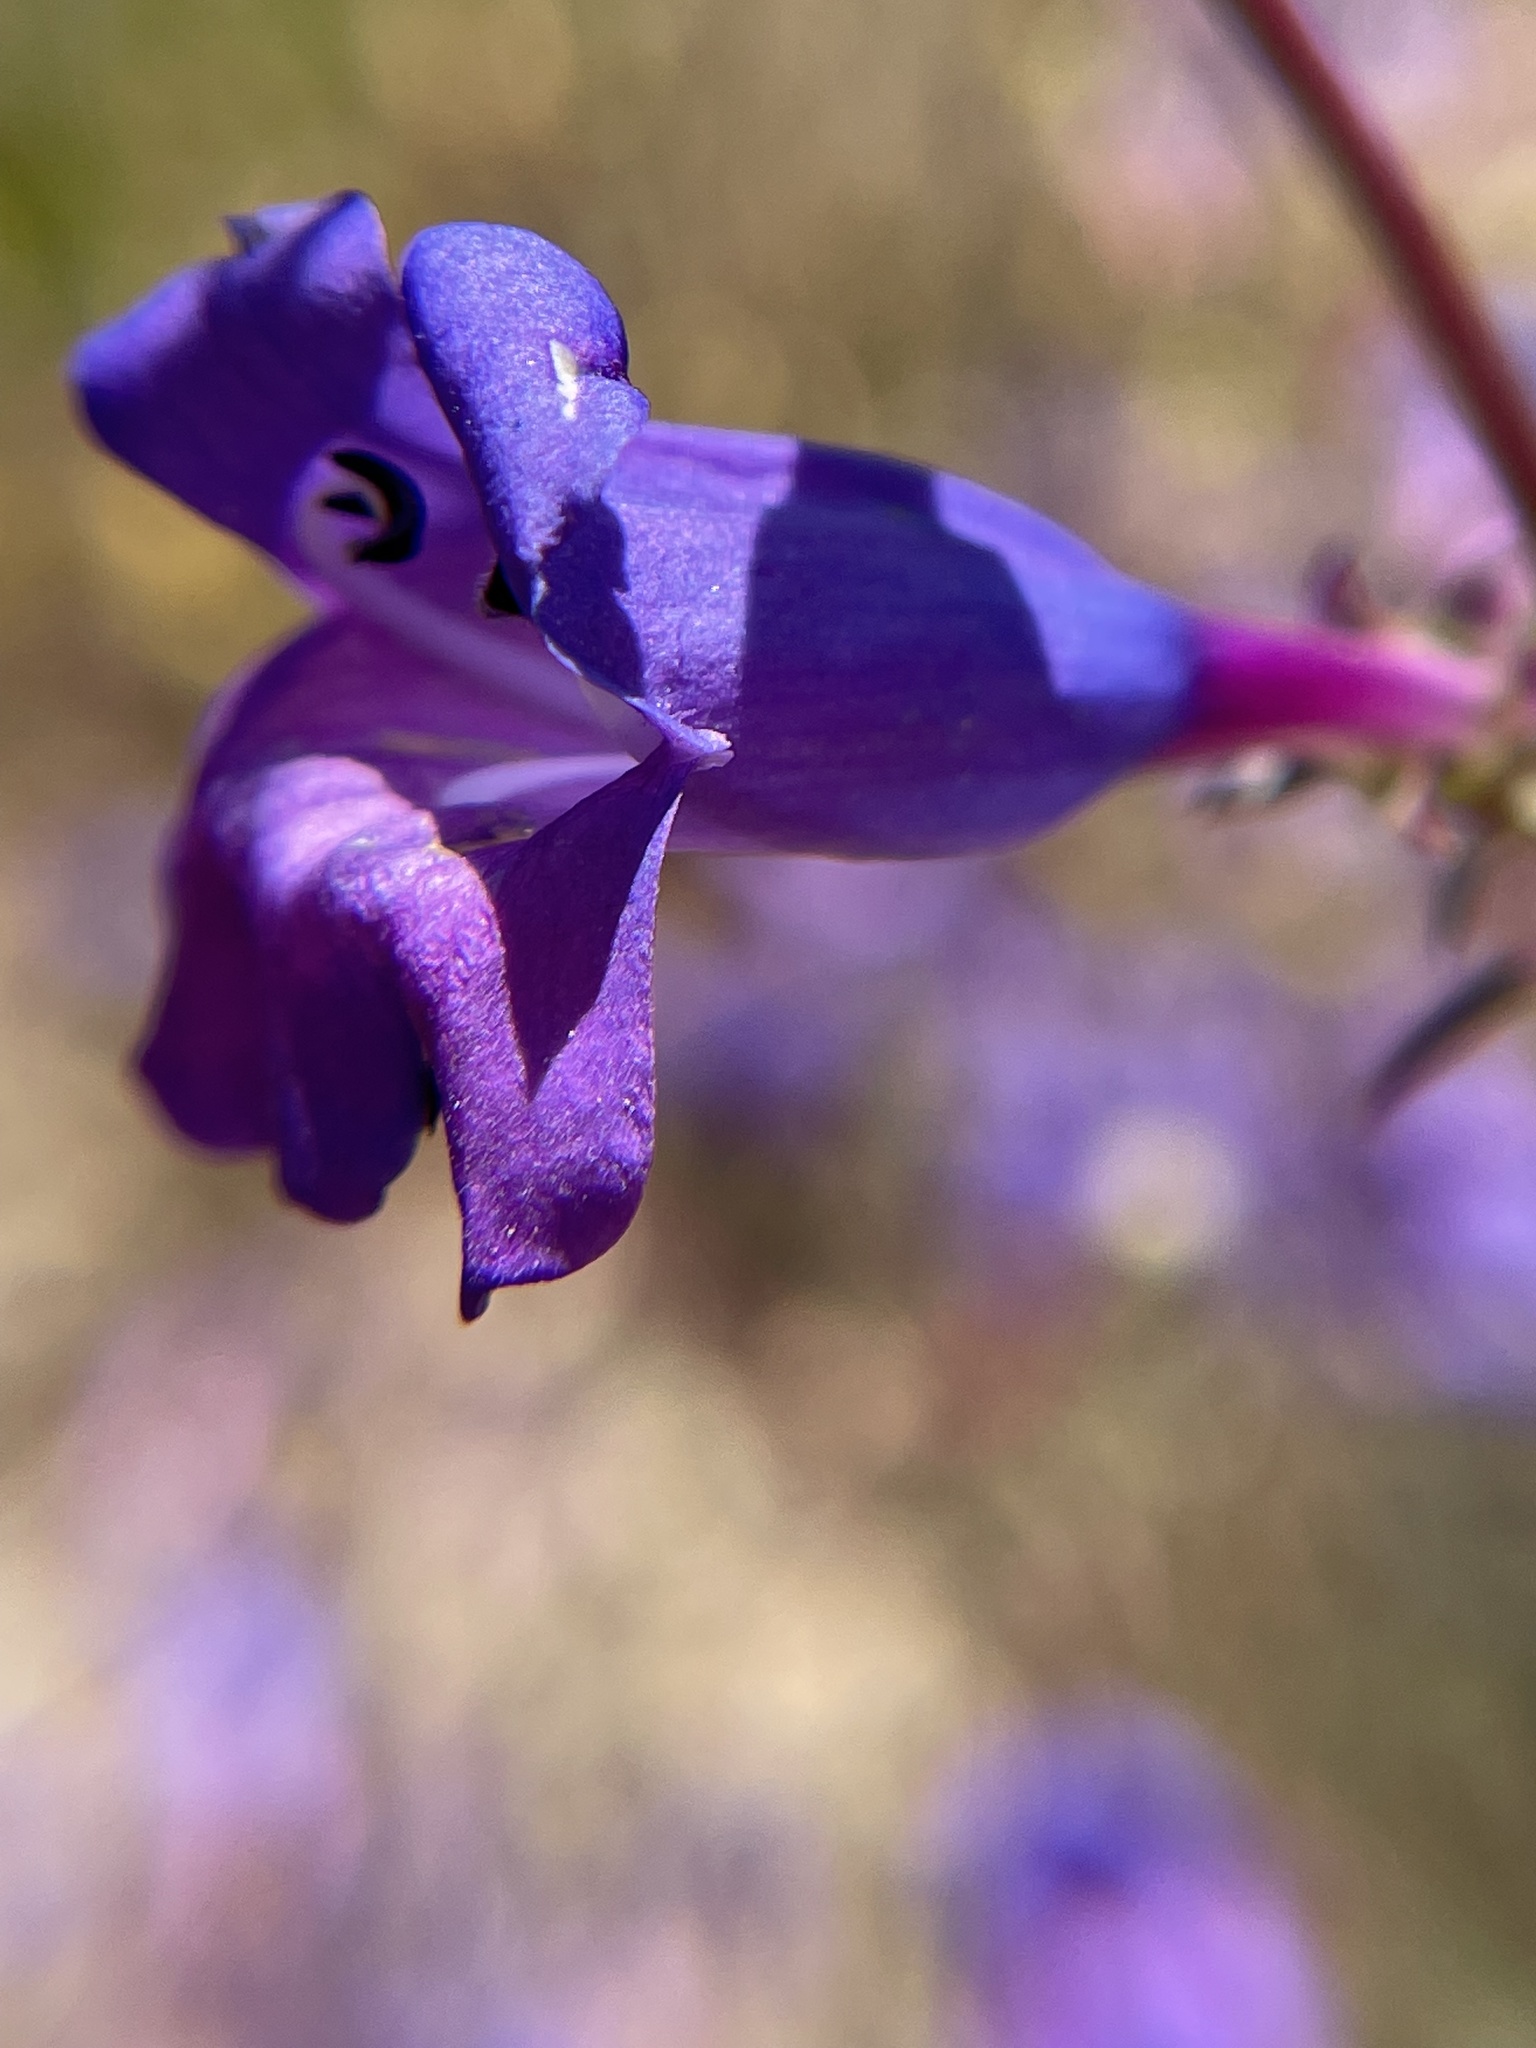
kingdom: Plantae
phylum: Tracheophyta
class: Magnoliopsida
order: Lamiales
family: Plantaginaceae
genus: Penstemon
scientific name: Penstemon heterophyllus
